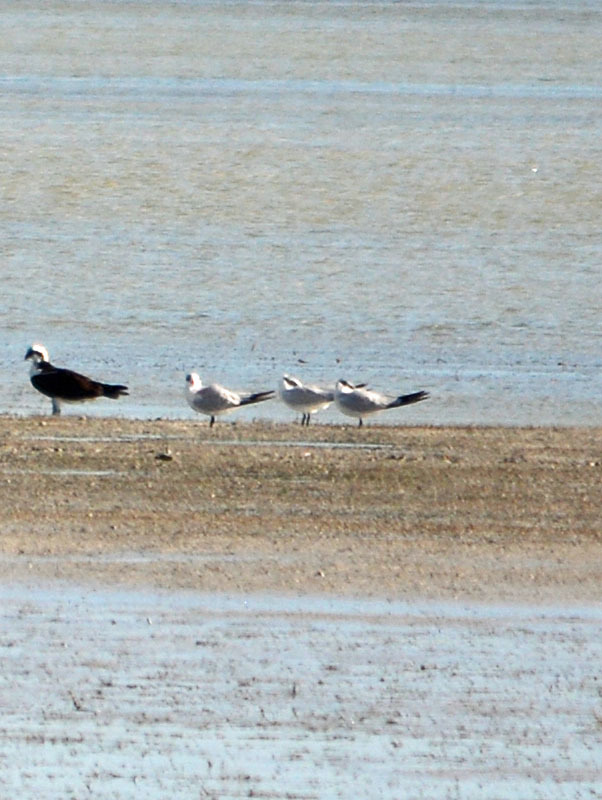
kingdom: Animalia
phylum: Chordata
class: Aves
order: Charadriiformes
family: Laridae
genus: Hydroprogne
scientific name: Hydroprogne caspia
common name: Caspian tern
